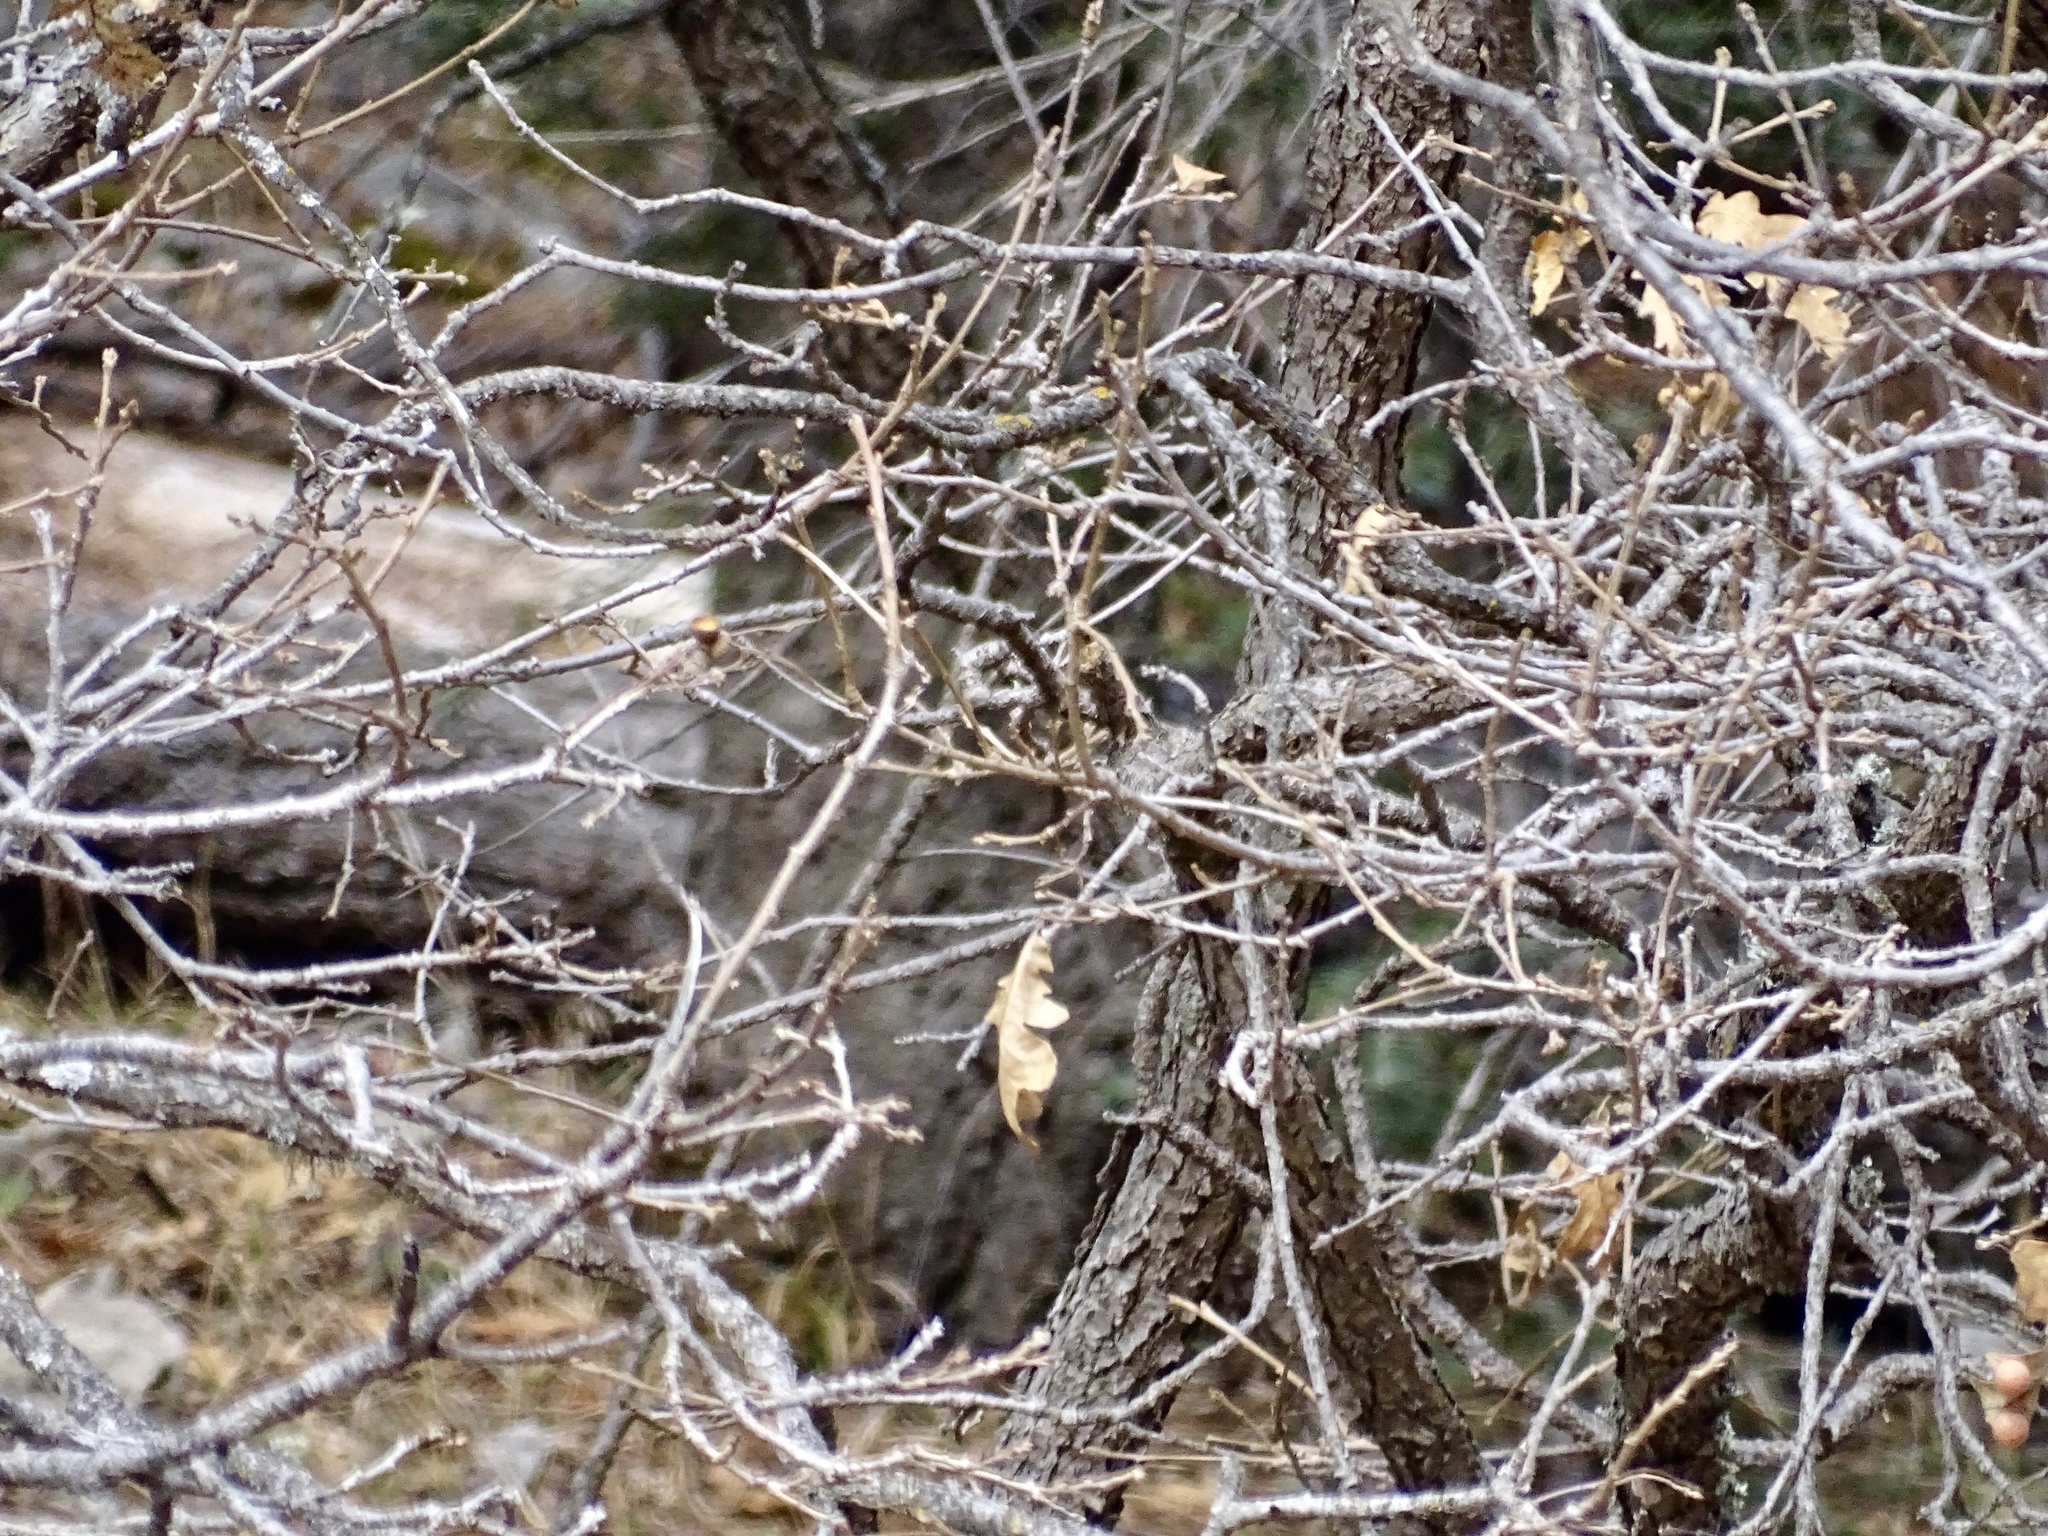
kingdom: Plantae
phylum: Tracheophyta
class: Magnoliopsida
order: Fagales
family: Fagaceae
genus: Quercus
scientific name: Quercus gambelii
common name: Gambel oak
